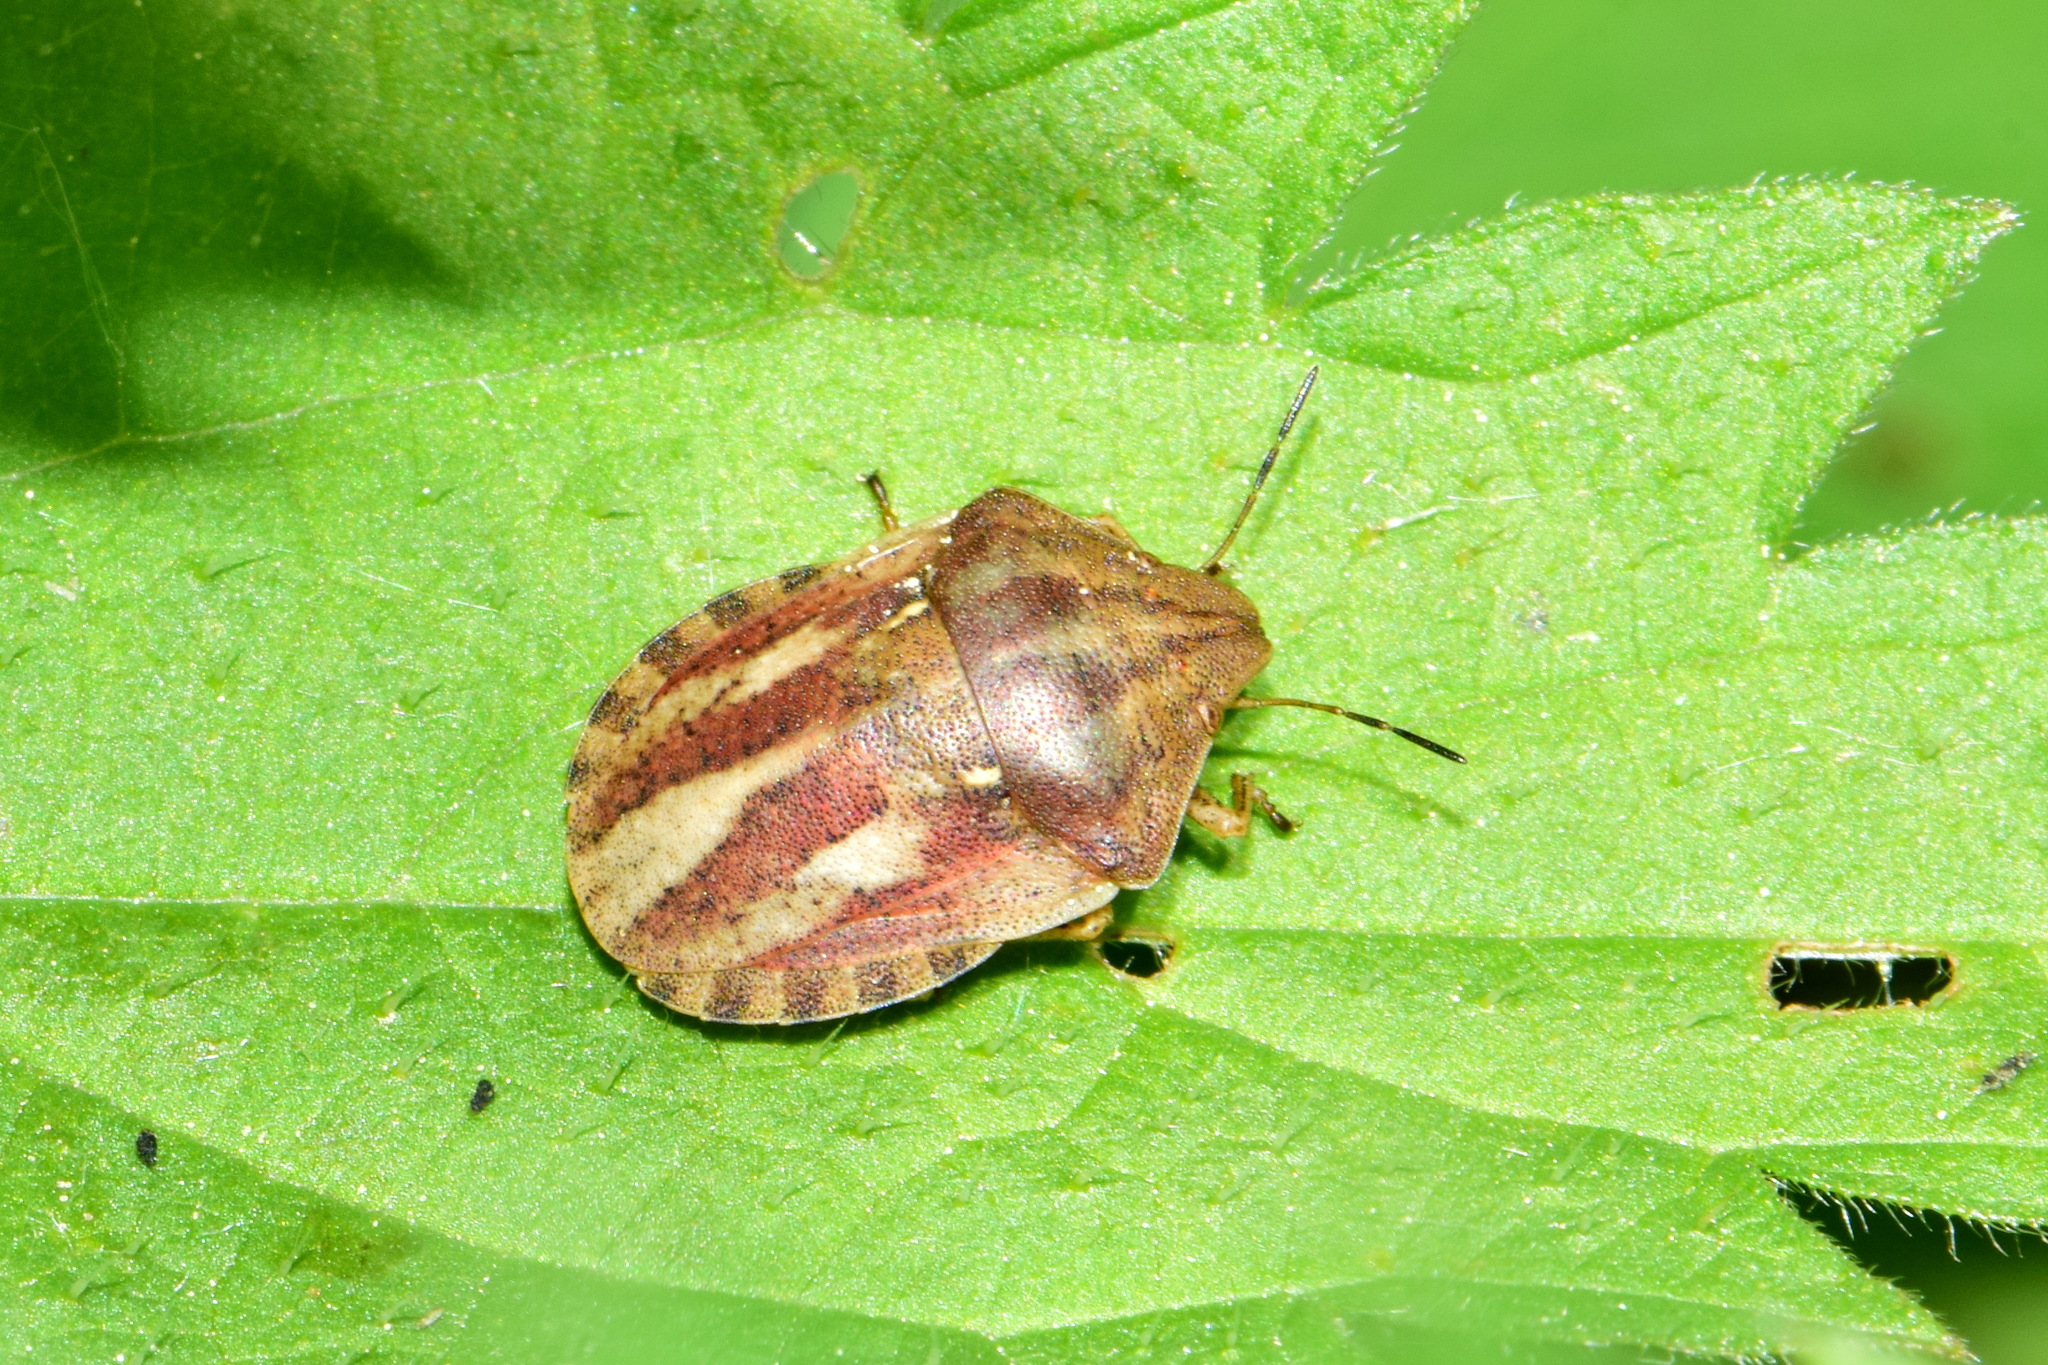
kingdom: Animalia
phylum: Arthropoda
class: Insecta
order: Hemiptera
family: Scutelleridae
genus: Eurygaster
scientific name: Eurygaster testudinaria
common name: Tortoise bug
